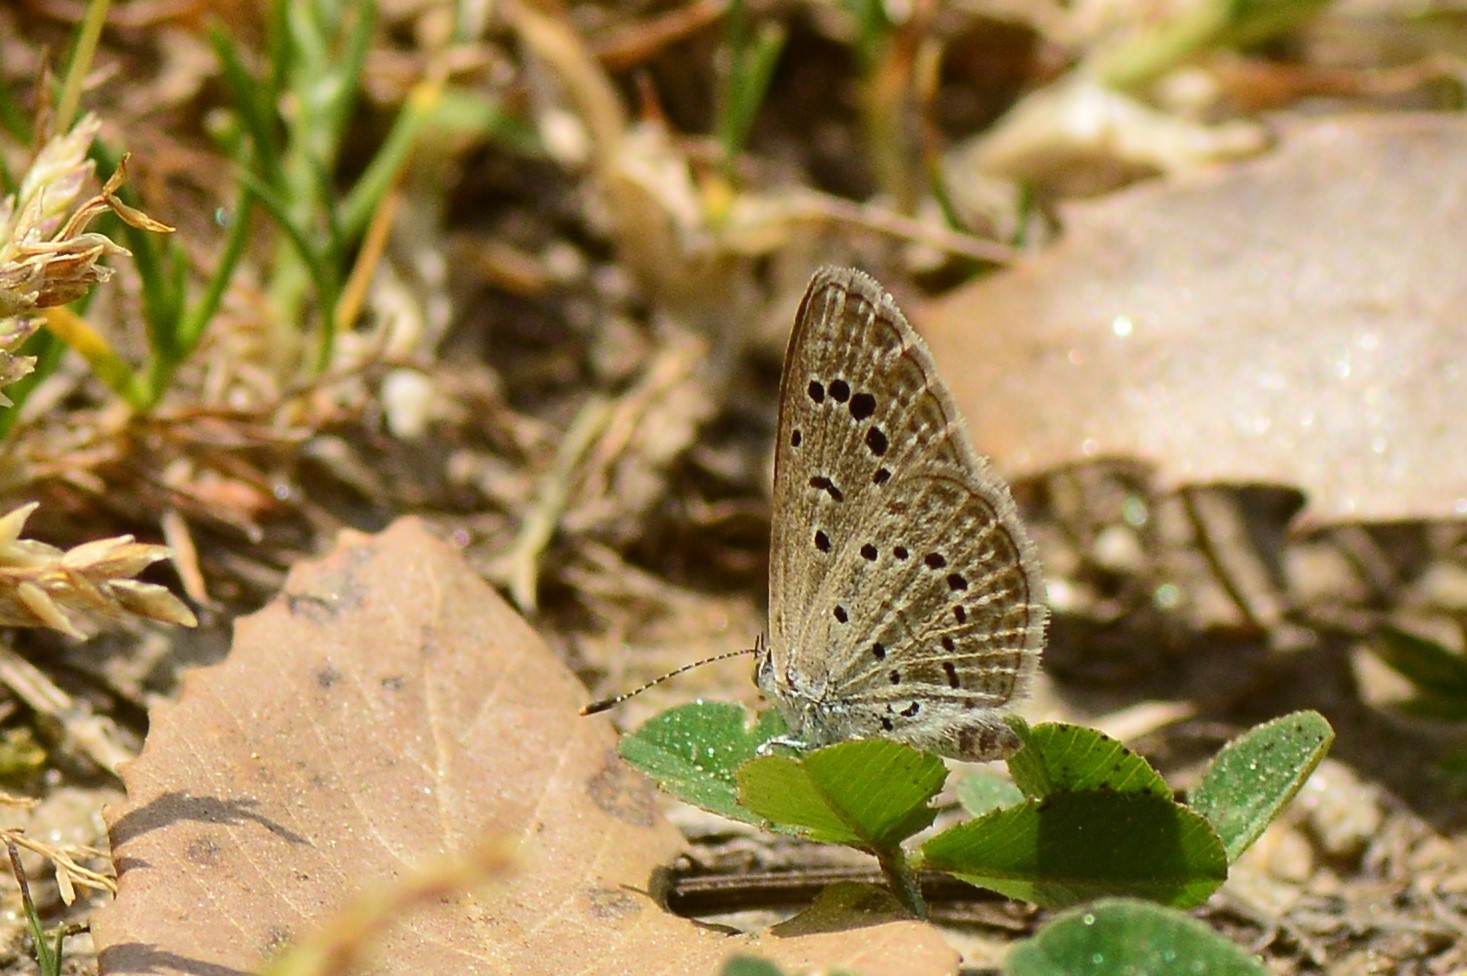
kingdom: Animalia
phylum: Arthropoda
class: Insecta
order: Lepidoptera
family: Lycaenidae
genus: Zizeeria
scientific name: Zizeeria karsandra
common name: Dark grass blue
